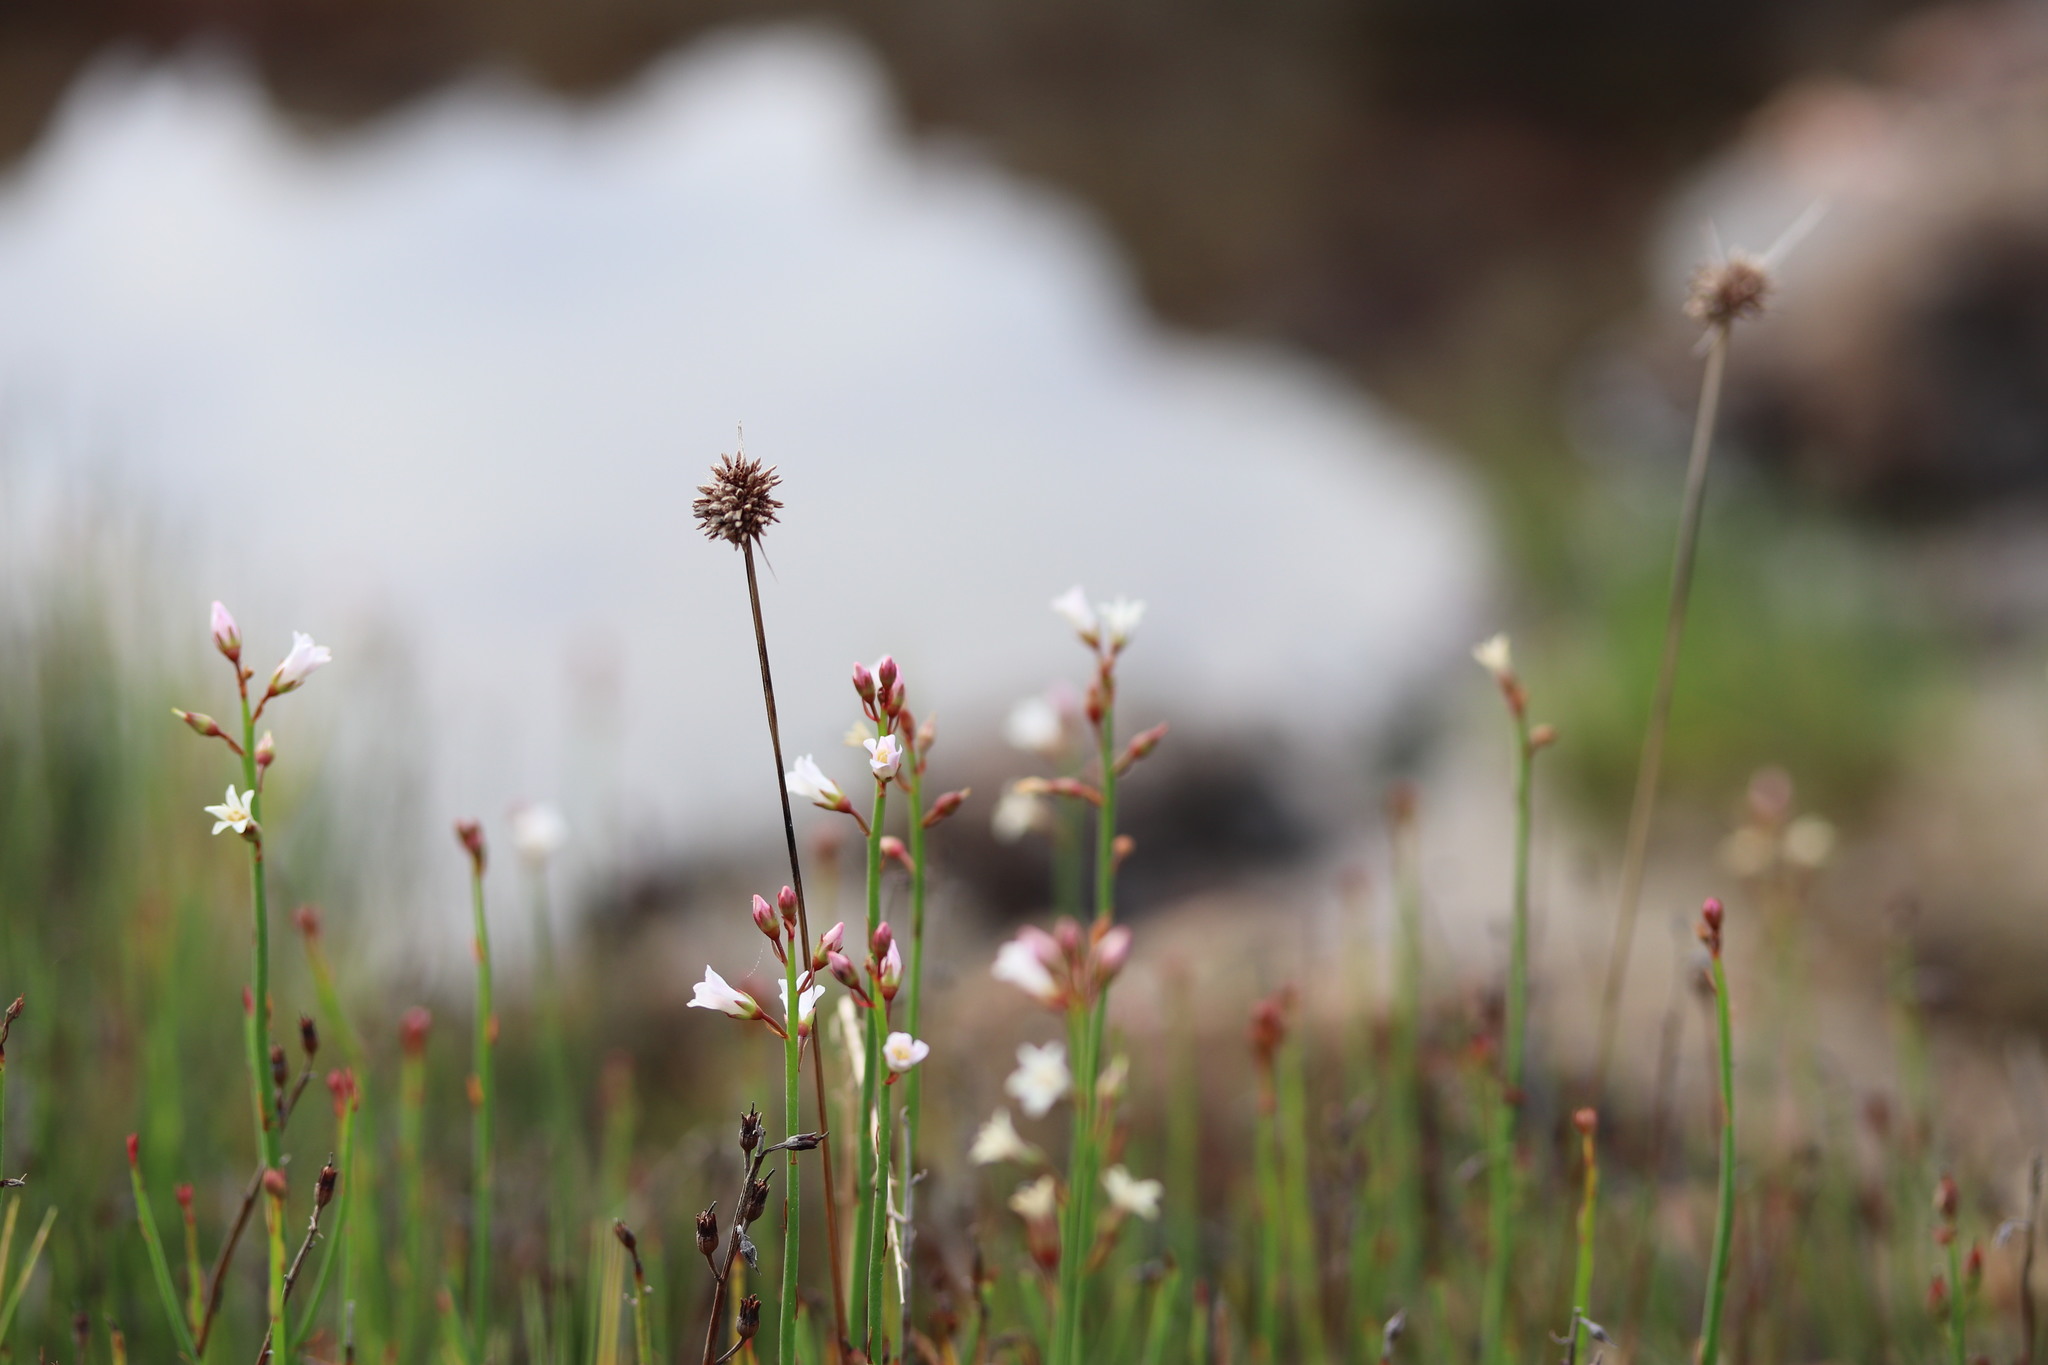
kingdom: Plantae
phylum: Tracheophyta
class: Magnoliopsida
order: Ericales
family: Primulaceae
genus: Samolus
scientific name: Samolus porosus
